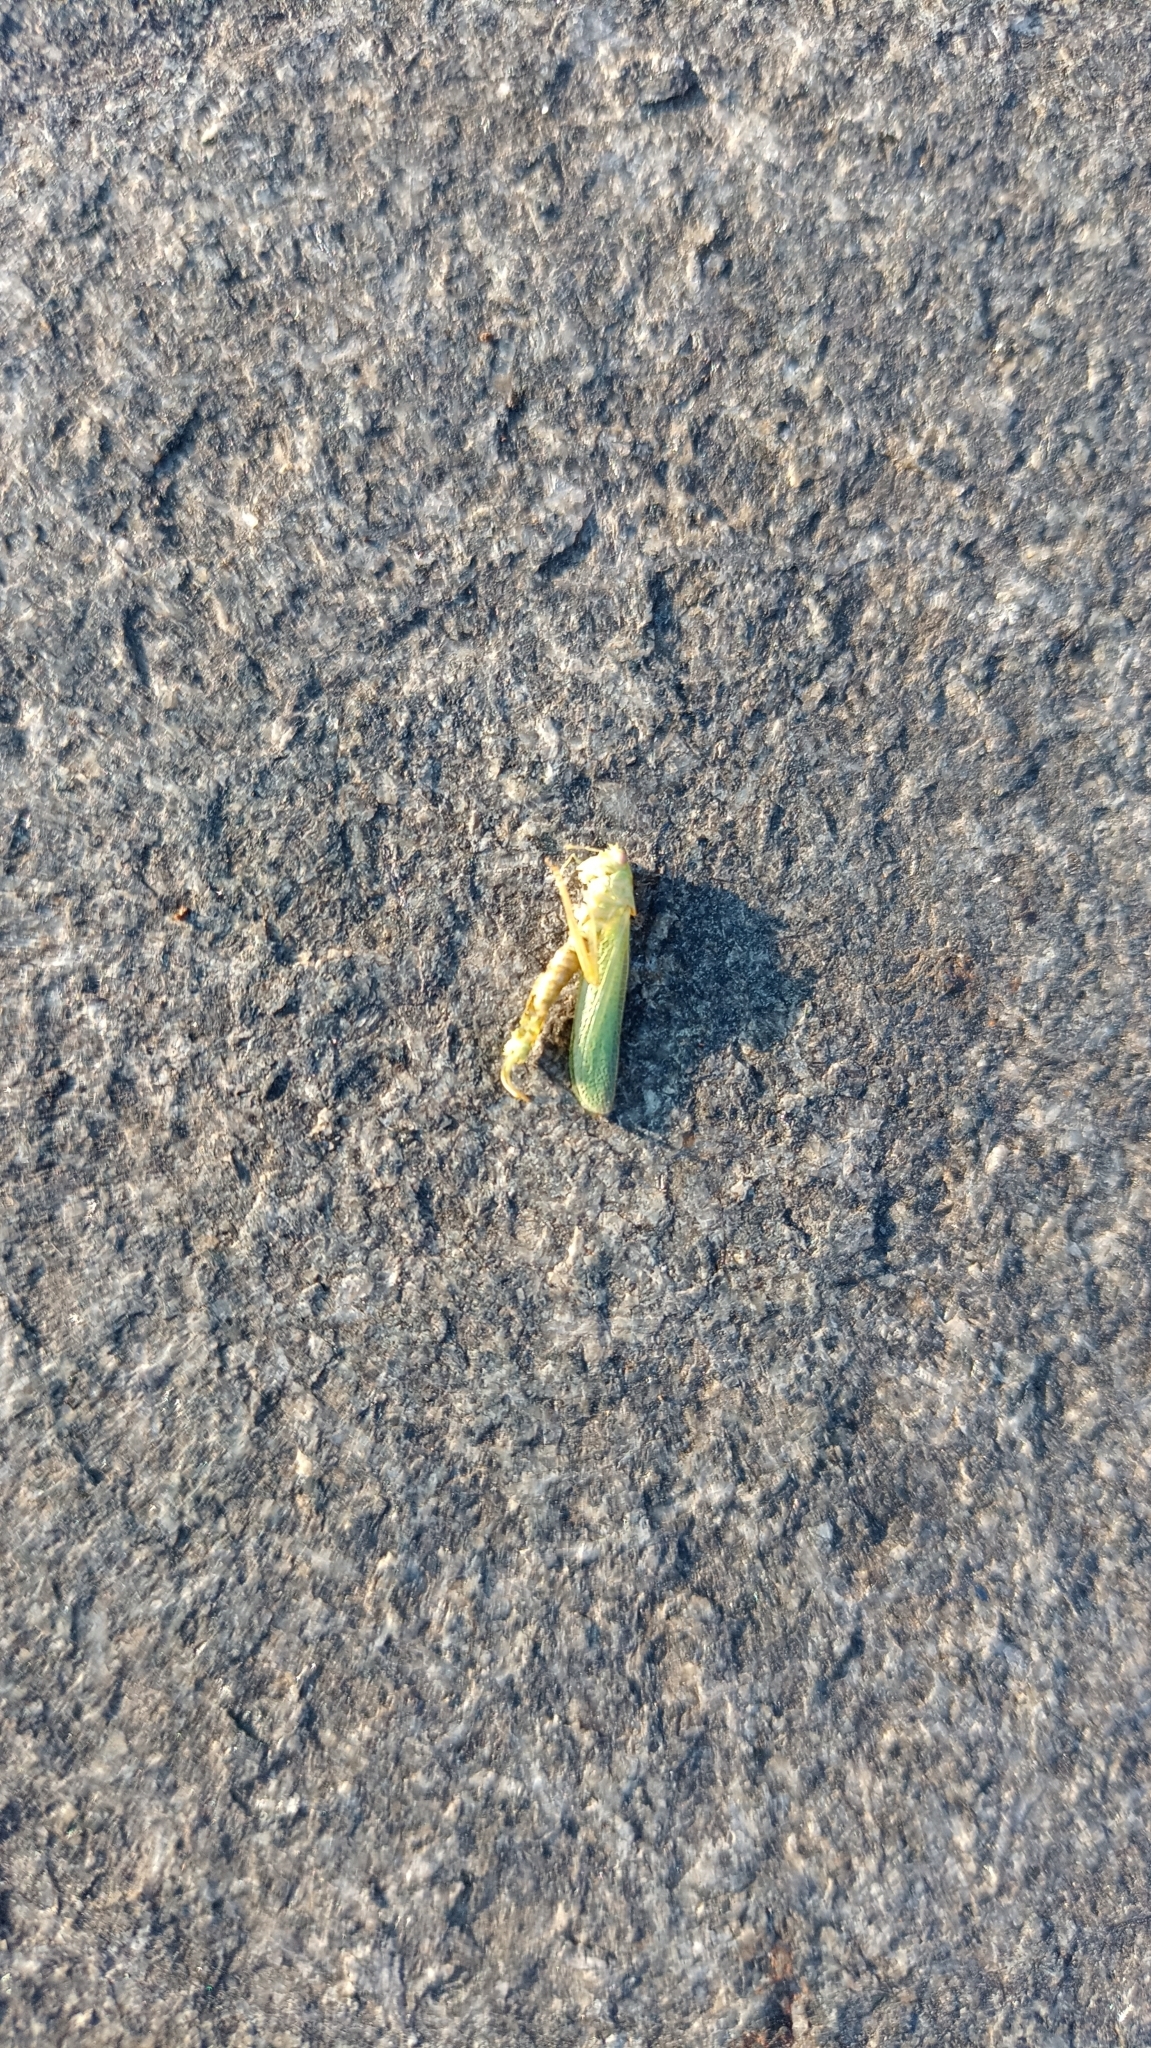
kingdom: Animalia
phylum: Arthropoda
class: Insecta
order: Orthoptera
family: Tettigoniidae
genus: Meconema
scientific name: Meconema thalassinum
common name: Oak bush-cricket
